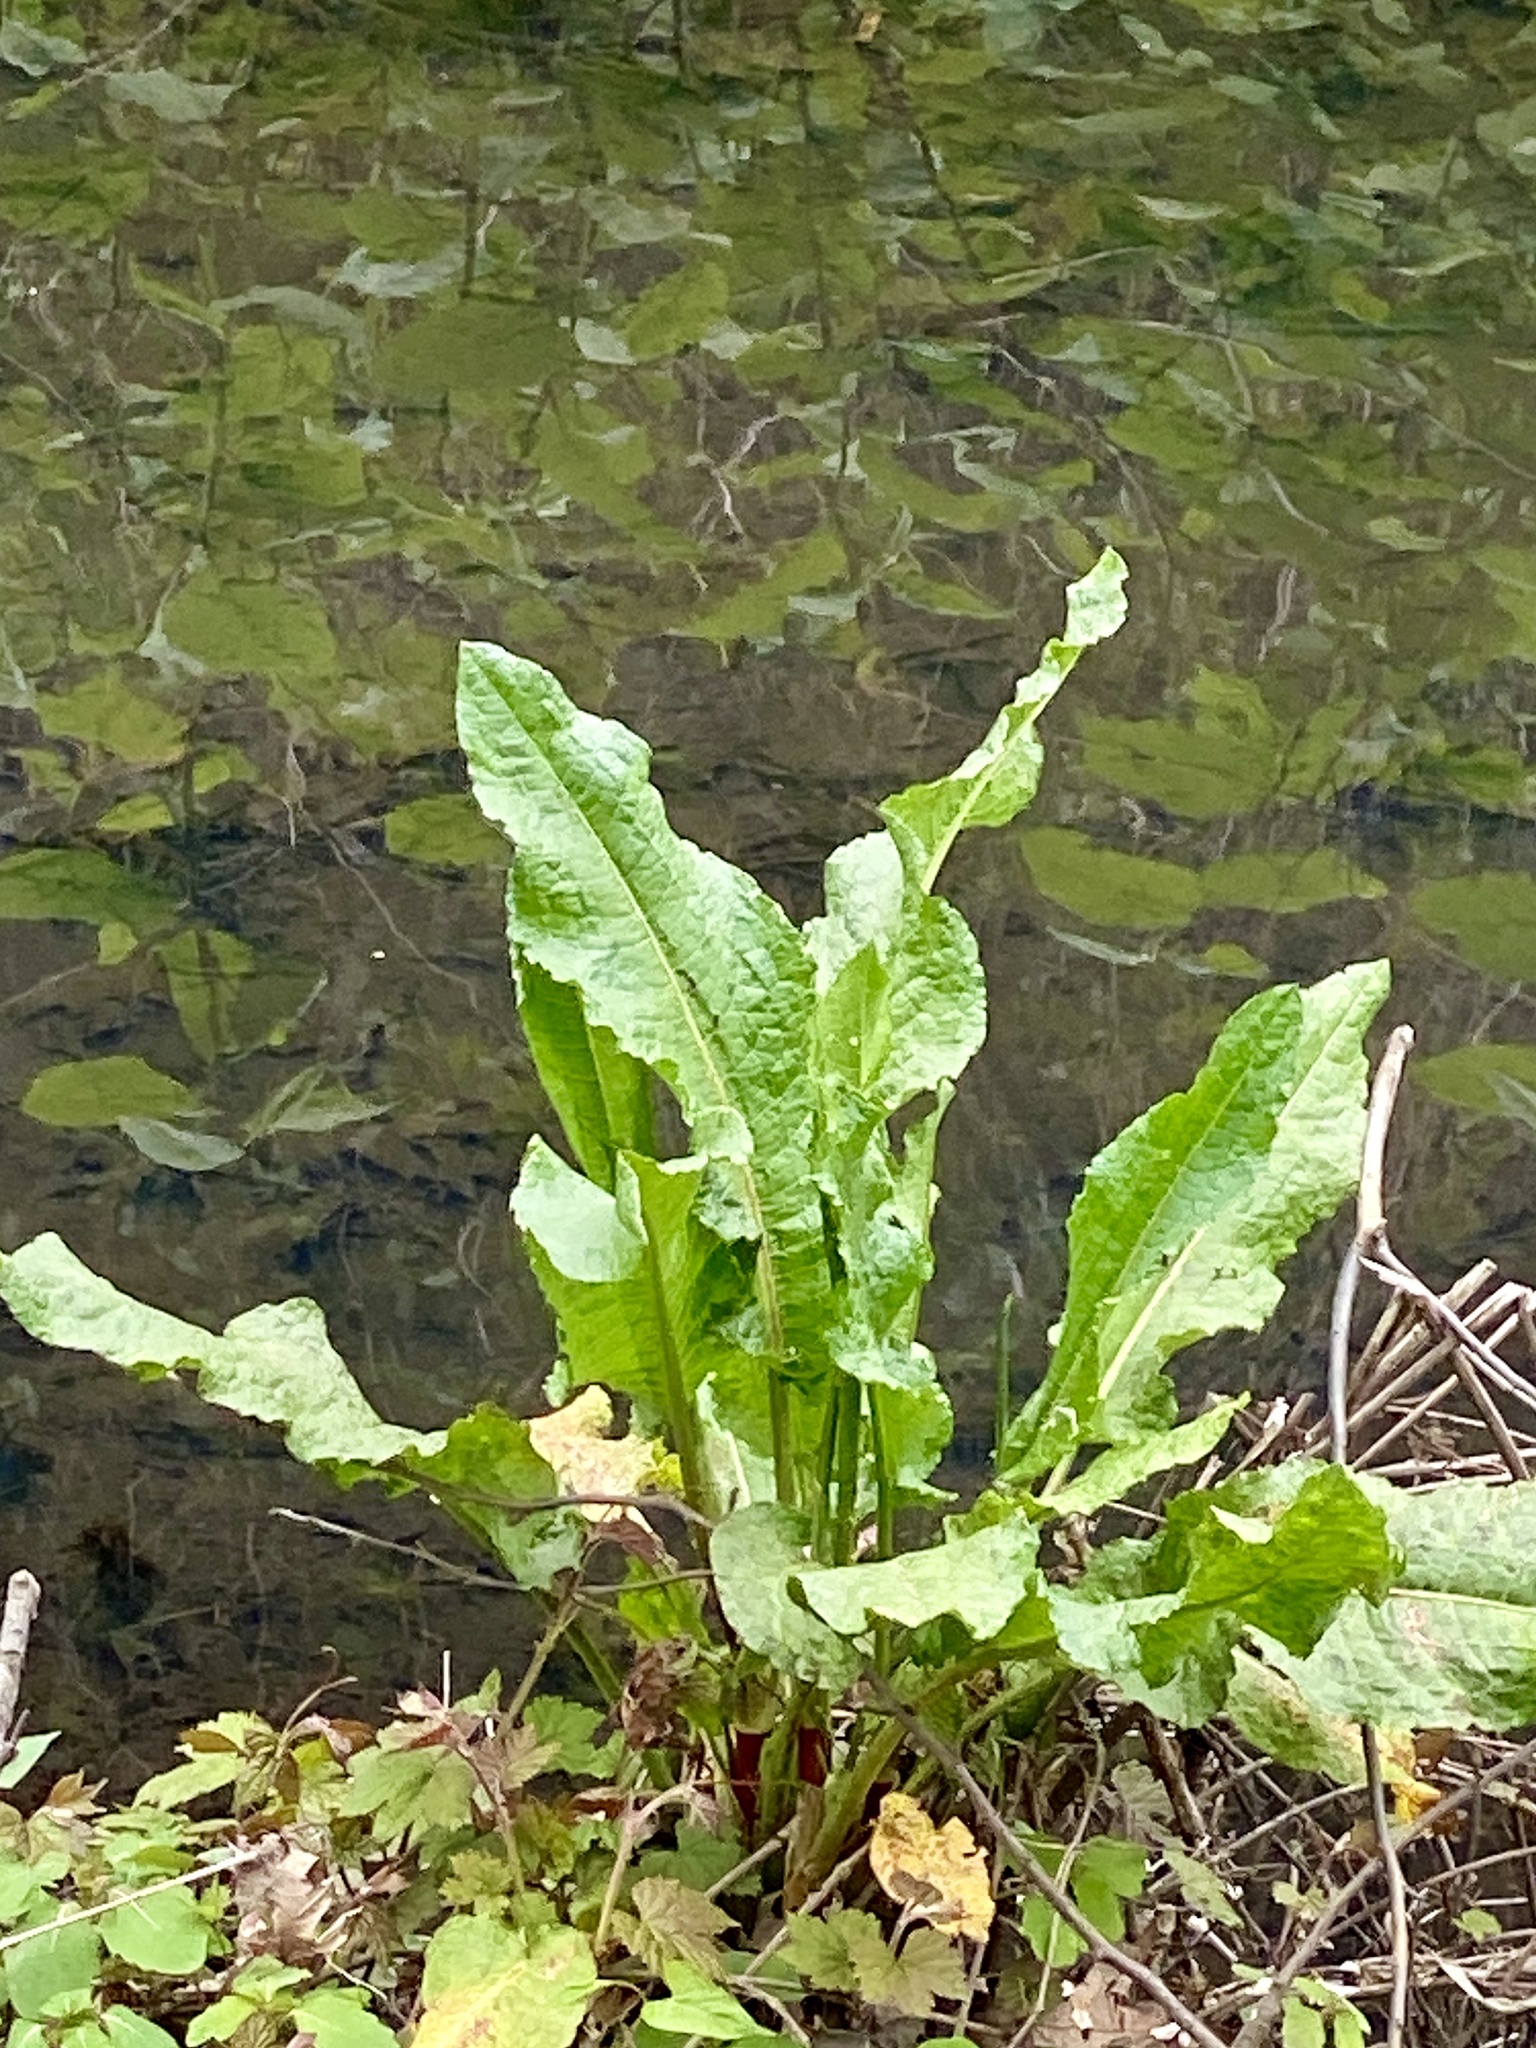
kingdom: Plantae
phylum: Tracheophyta
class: Magnoliopsida
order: Caryophyllales
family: Polygonaceae
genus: Rumex
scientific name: Rumex obtusifolius
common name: Bitter dock
